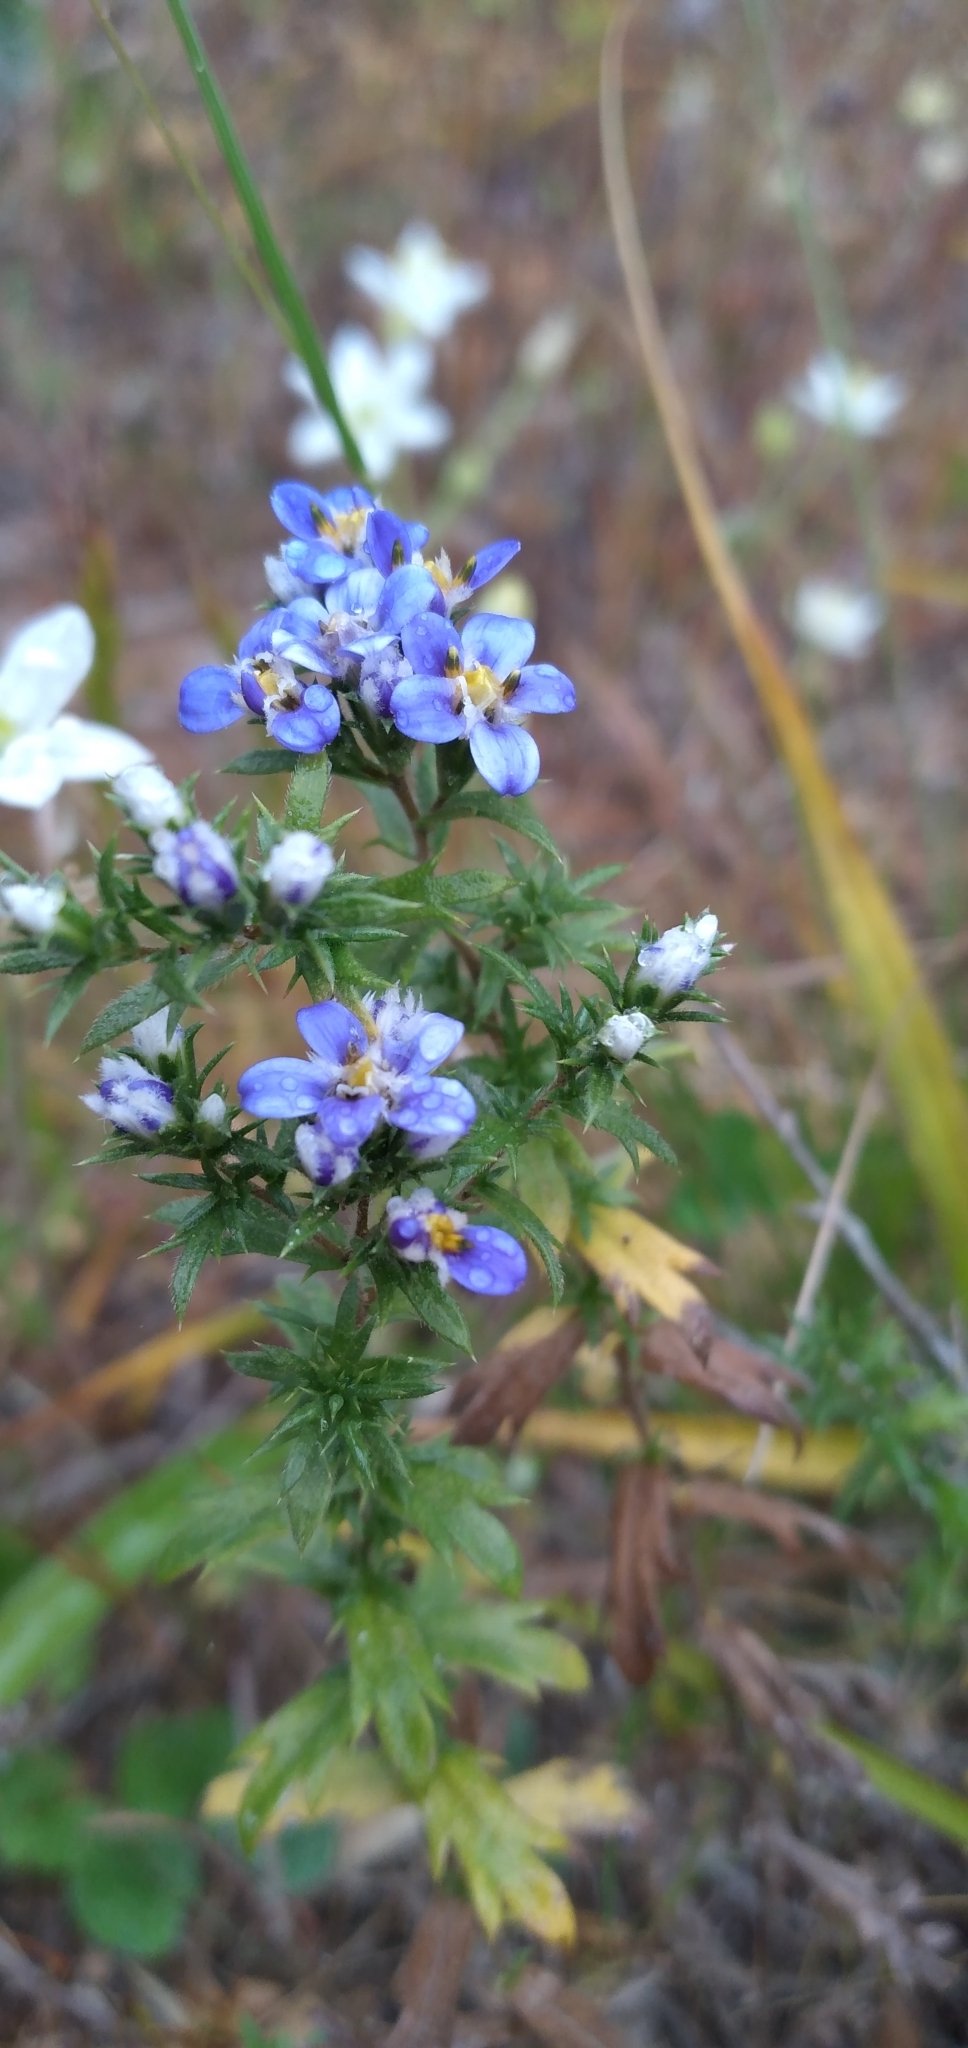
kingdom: Plantae
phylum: Tracheophyta
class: Magnoliopsida
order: Asterales
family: Asteraceae
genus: Triptilion
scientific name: Triptilion spinosum
